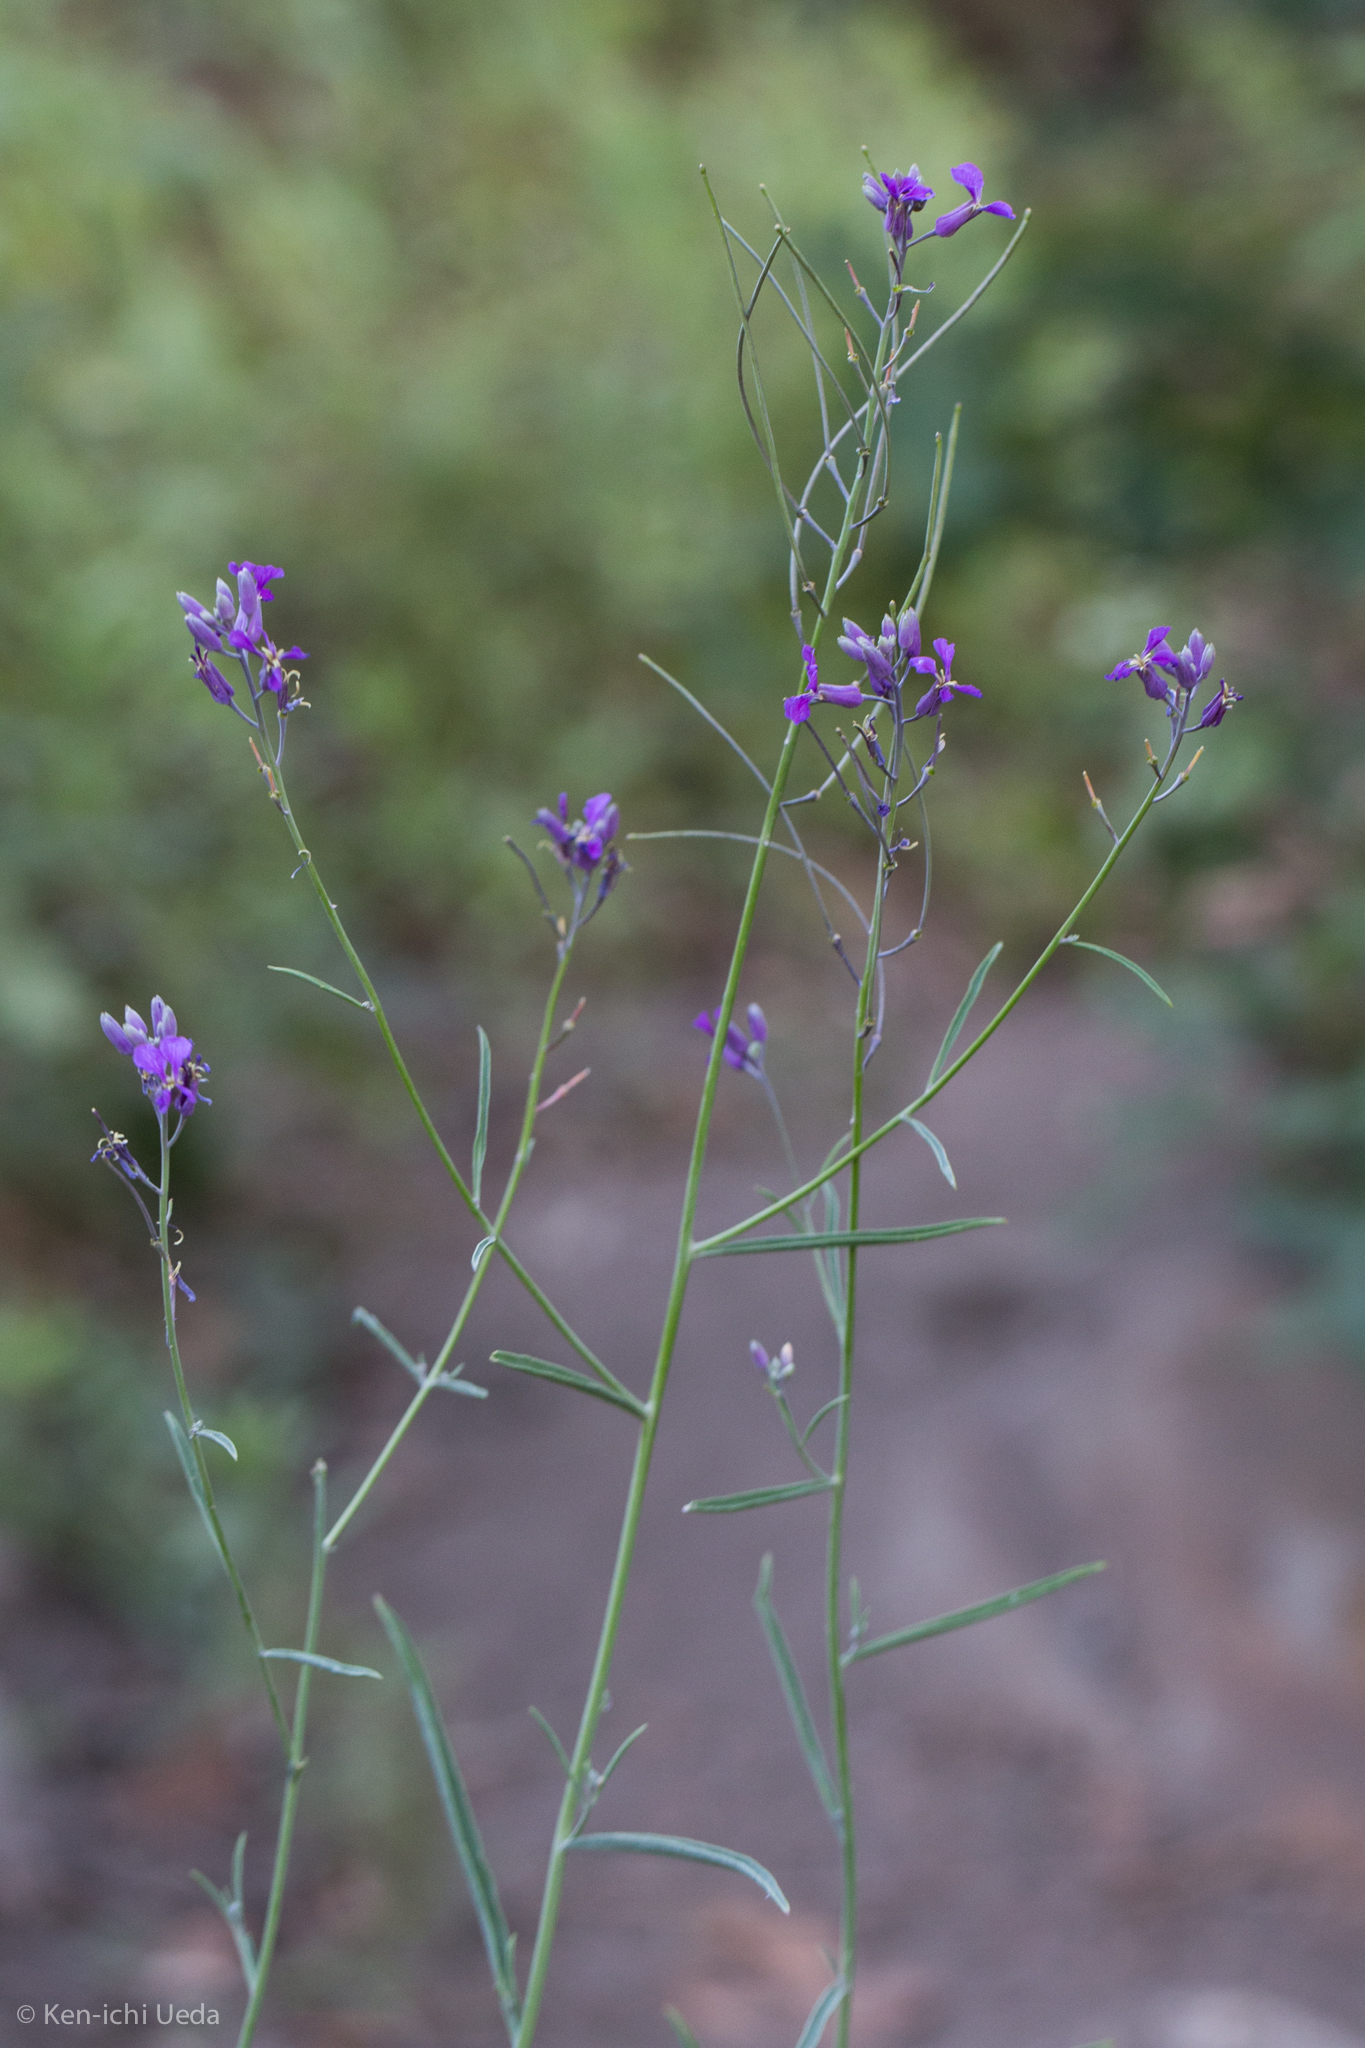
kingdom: Plantae
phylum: Tracheophyta
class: Magnoliopsida
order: Brassicales
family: Brassicaceae
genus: Hesperidanthus
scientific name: Hesperidanthus linearifolius
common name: Slim-leaf plains mustard
